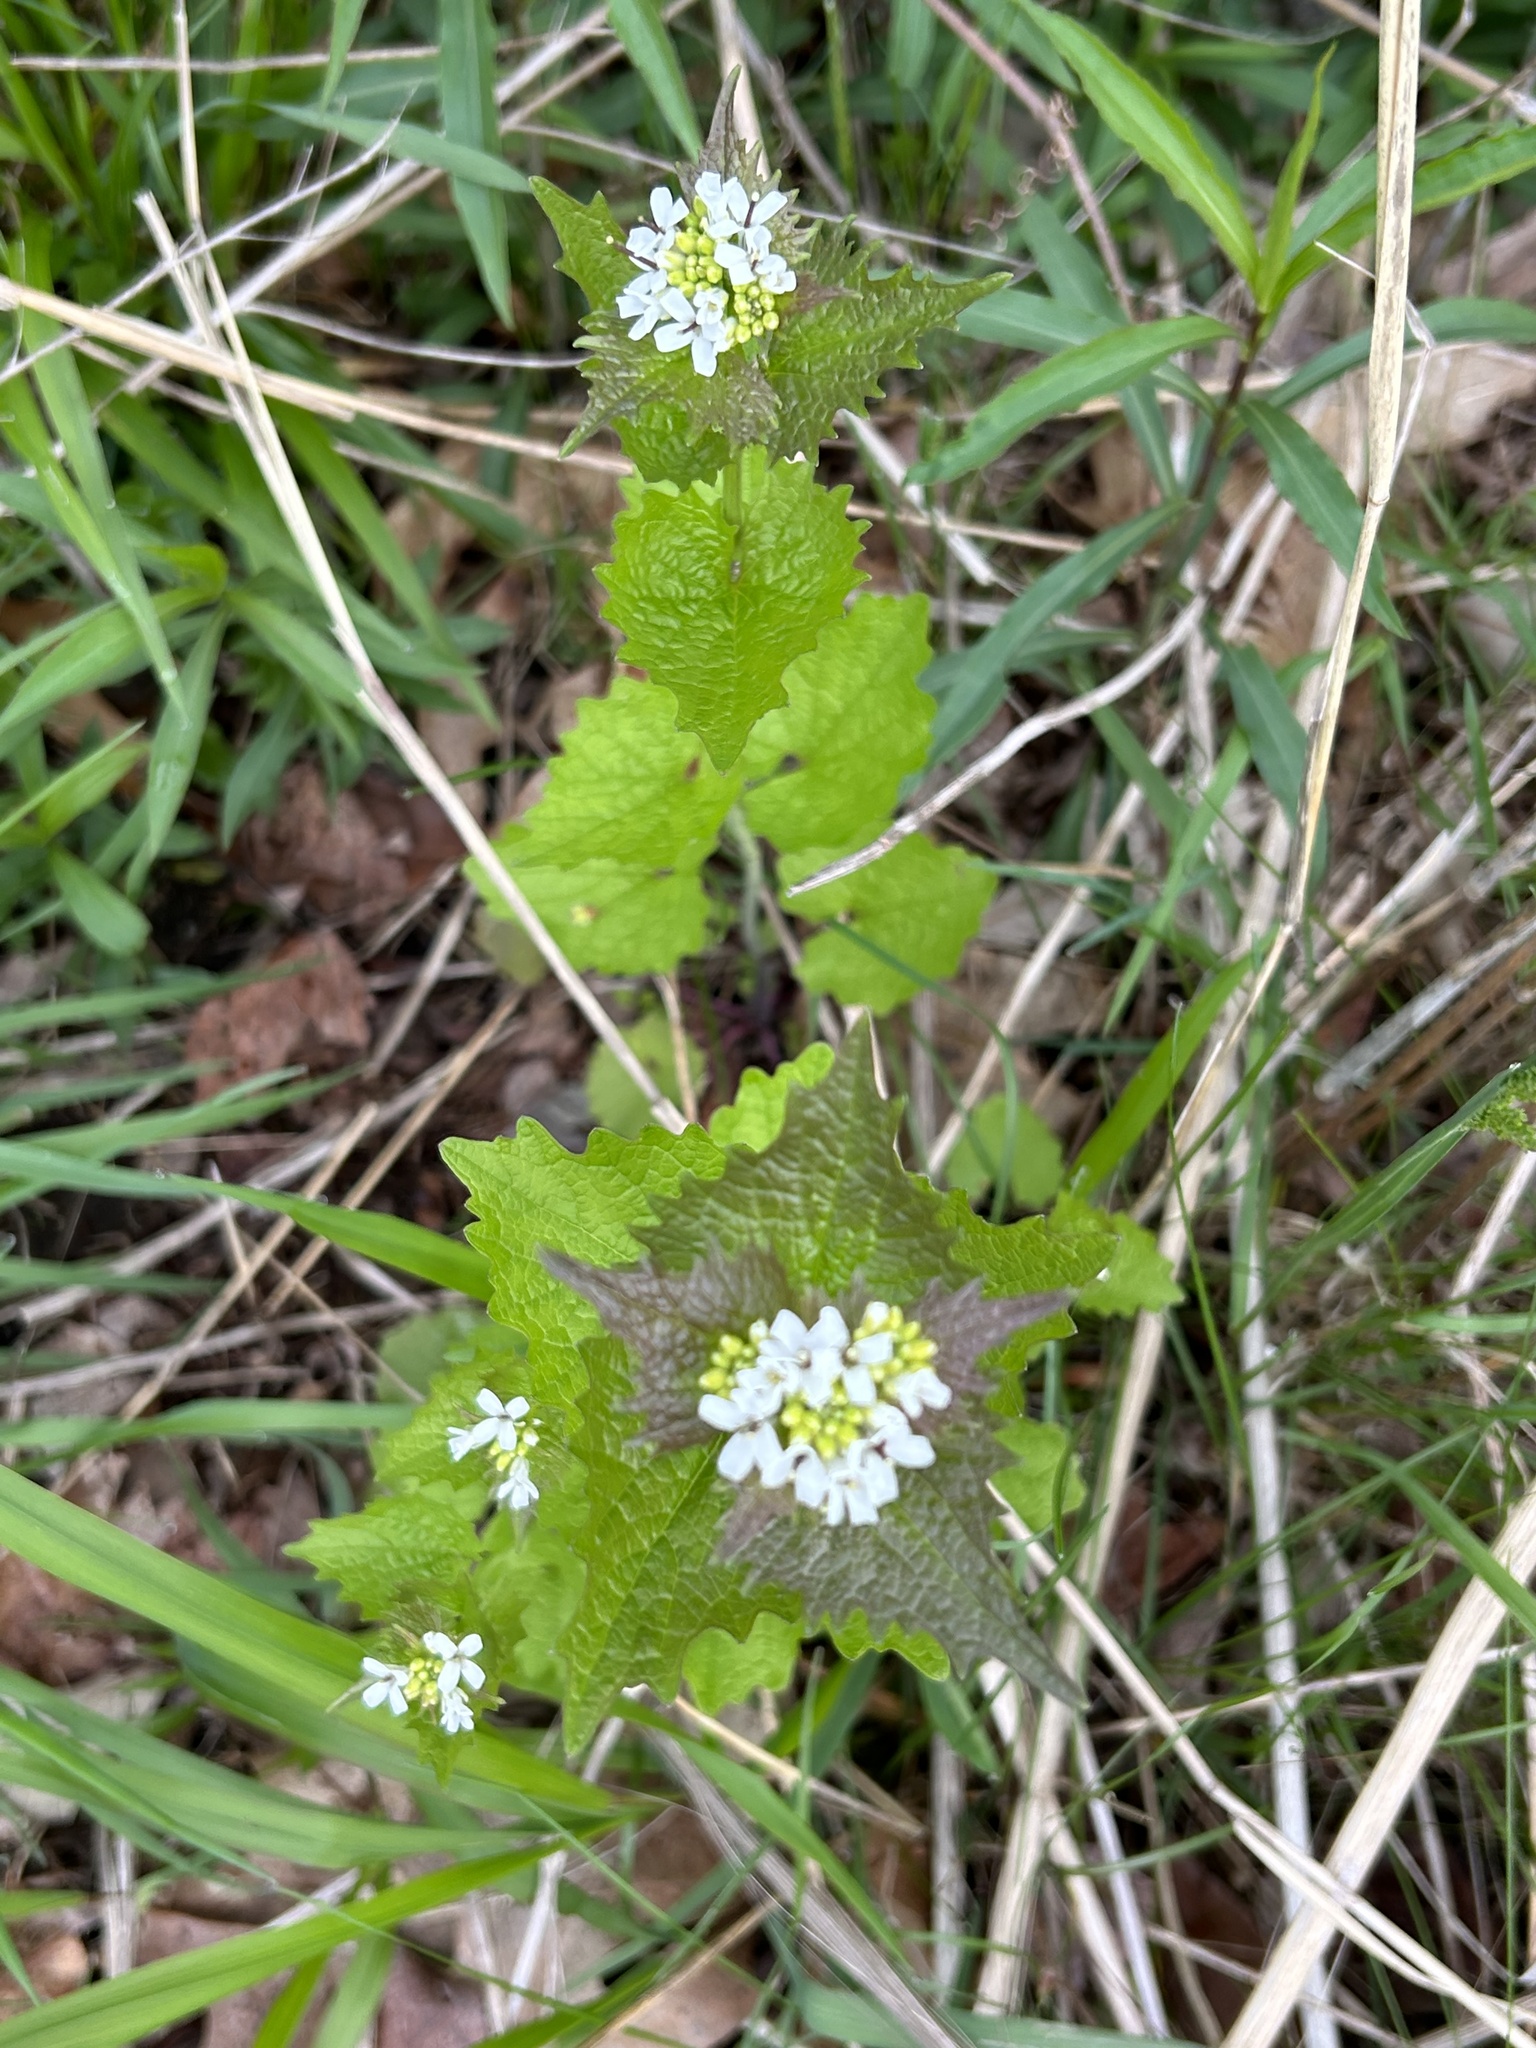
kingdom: Plantae
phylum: Tracheophyta
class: Magnoliopsida
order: Brassicales
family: Brassicaceae
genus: Alliaria
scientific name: Alliaria petiolata
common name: Garlic mustard
